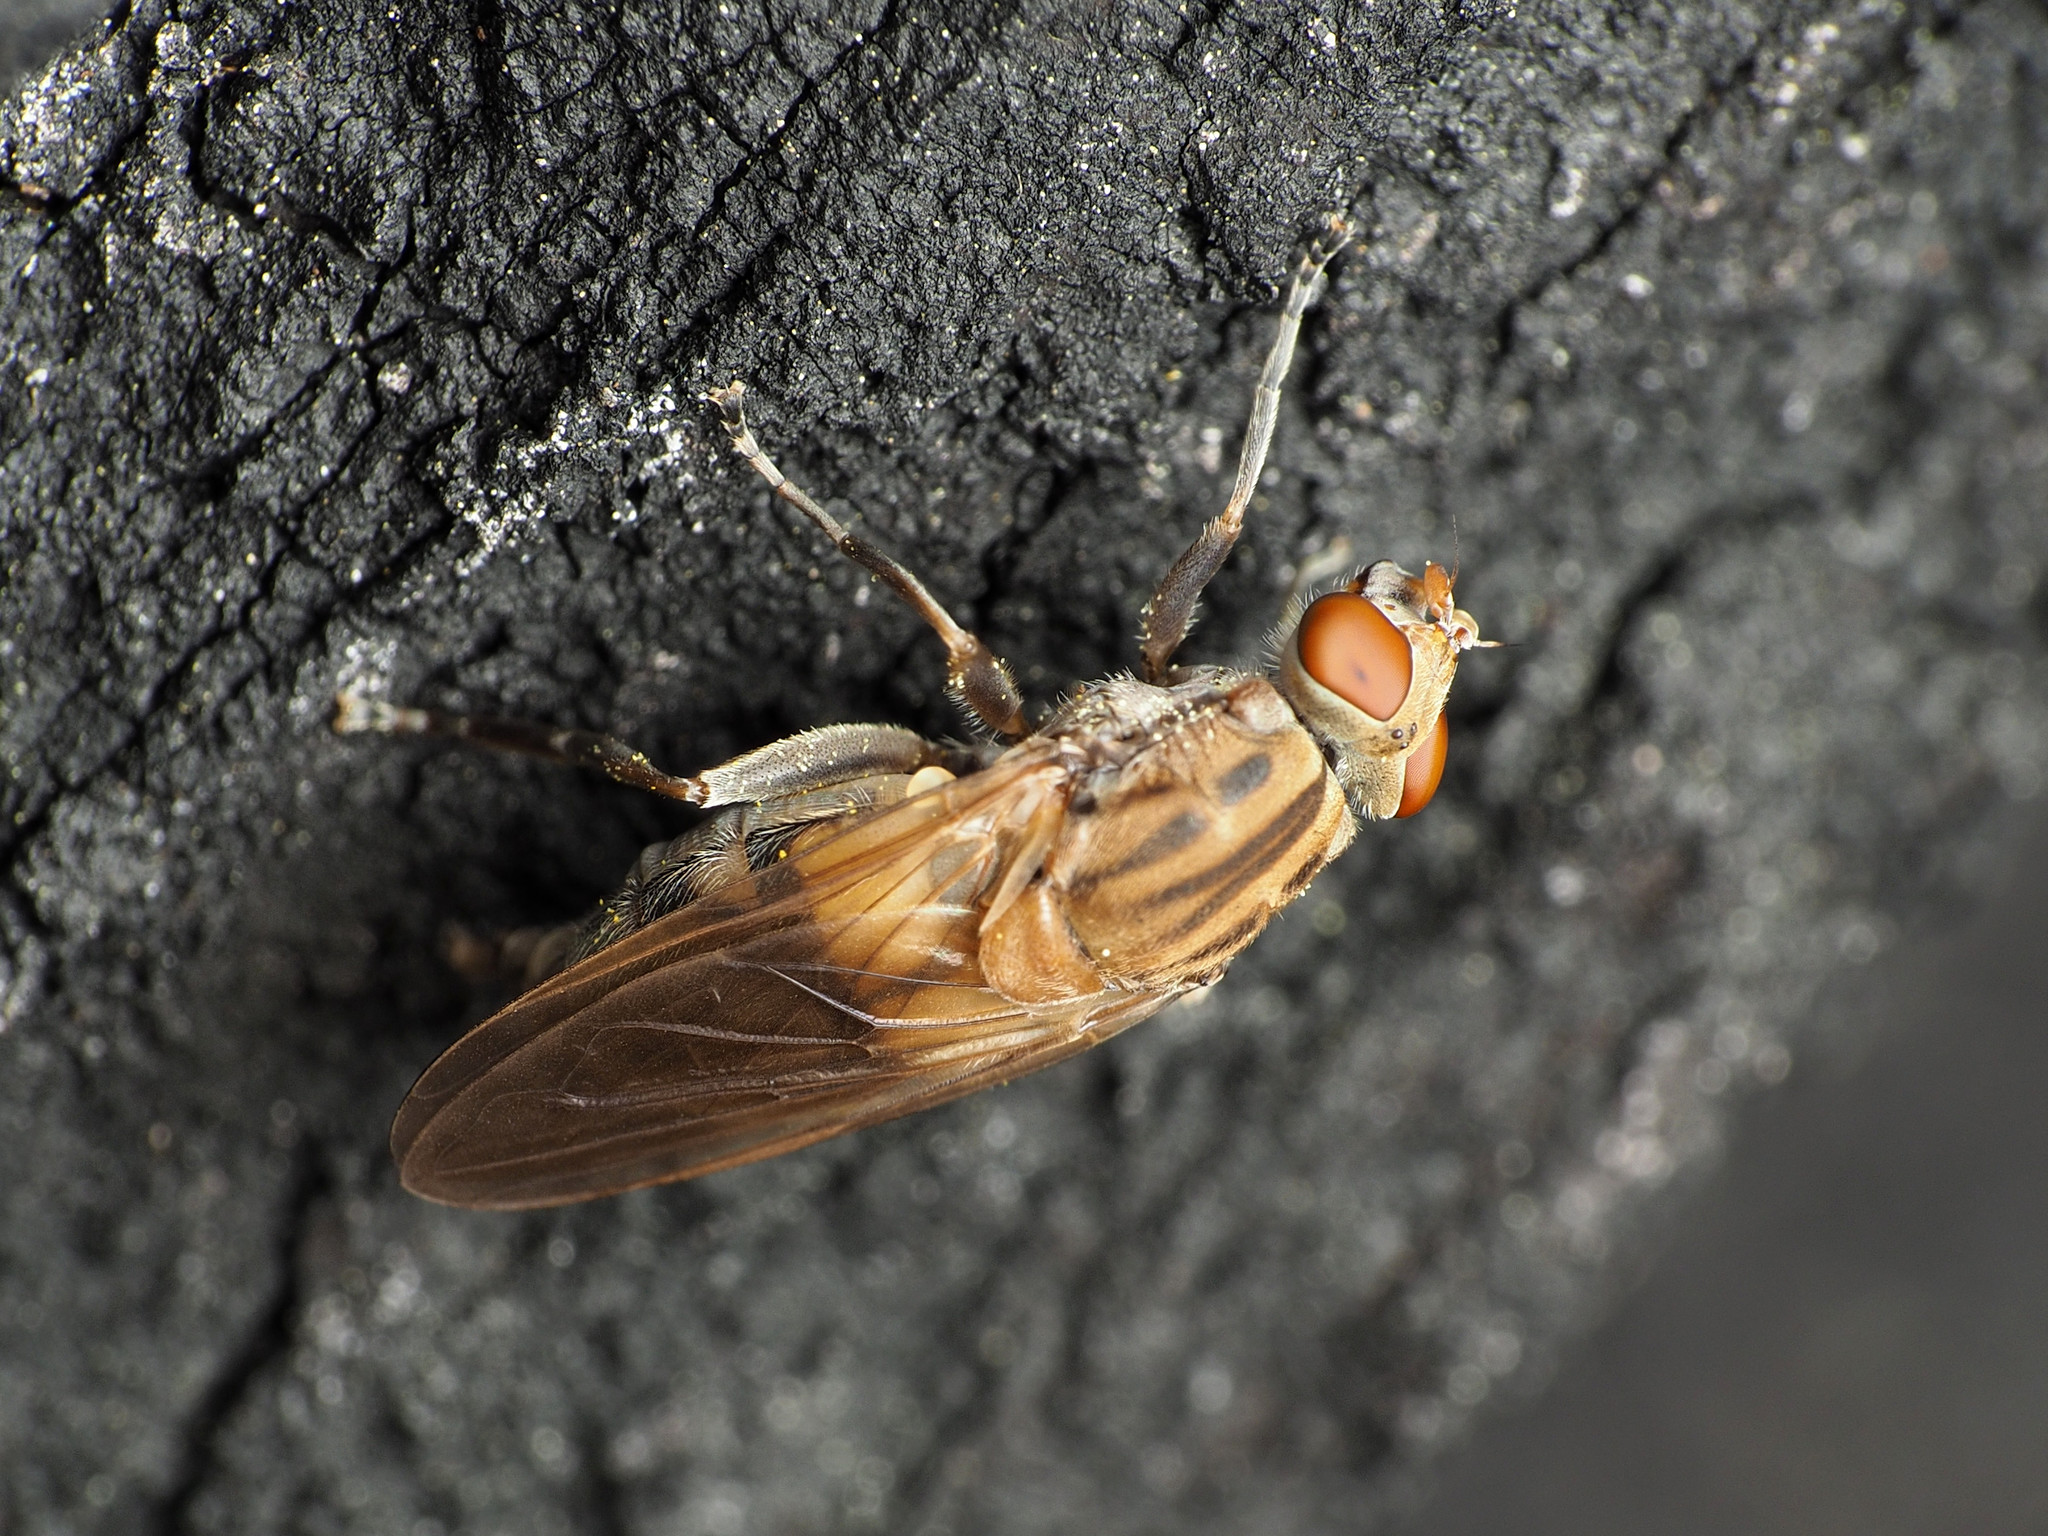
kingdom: Animalia
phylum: Arthropoda
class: Insecta
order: Diptera
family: Syrphidae
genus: Brachyopa
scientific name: Brachyopa vacua
